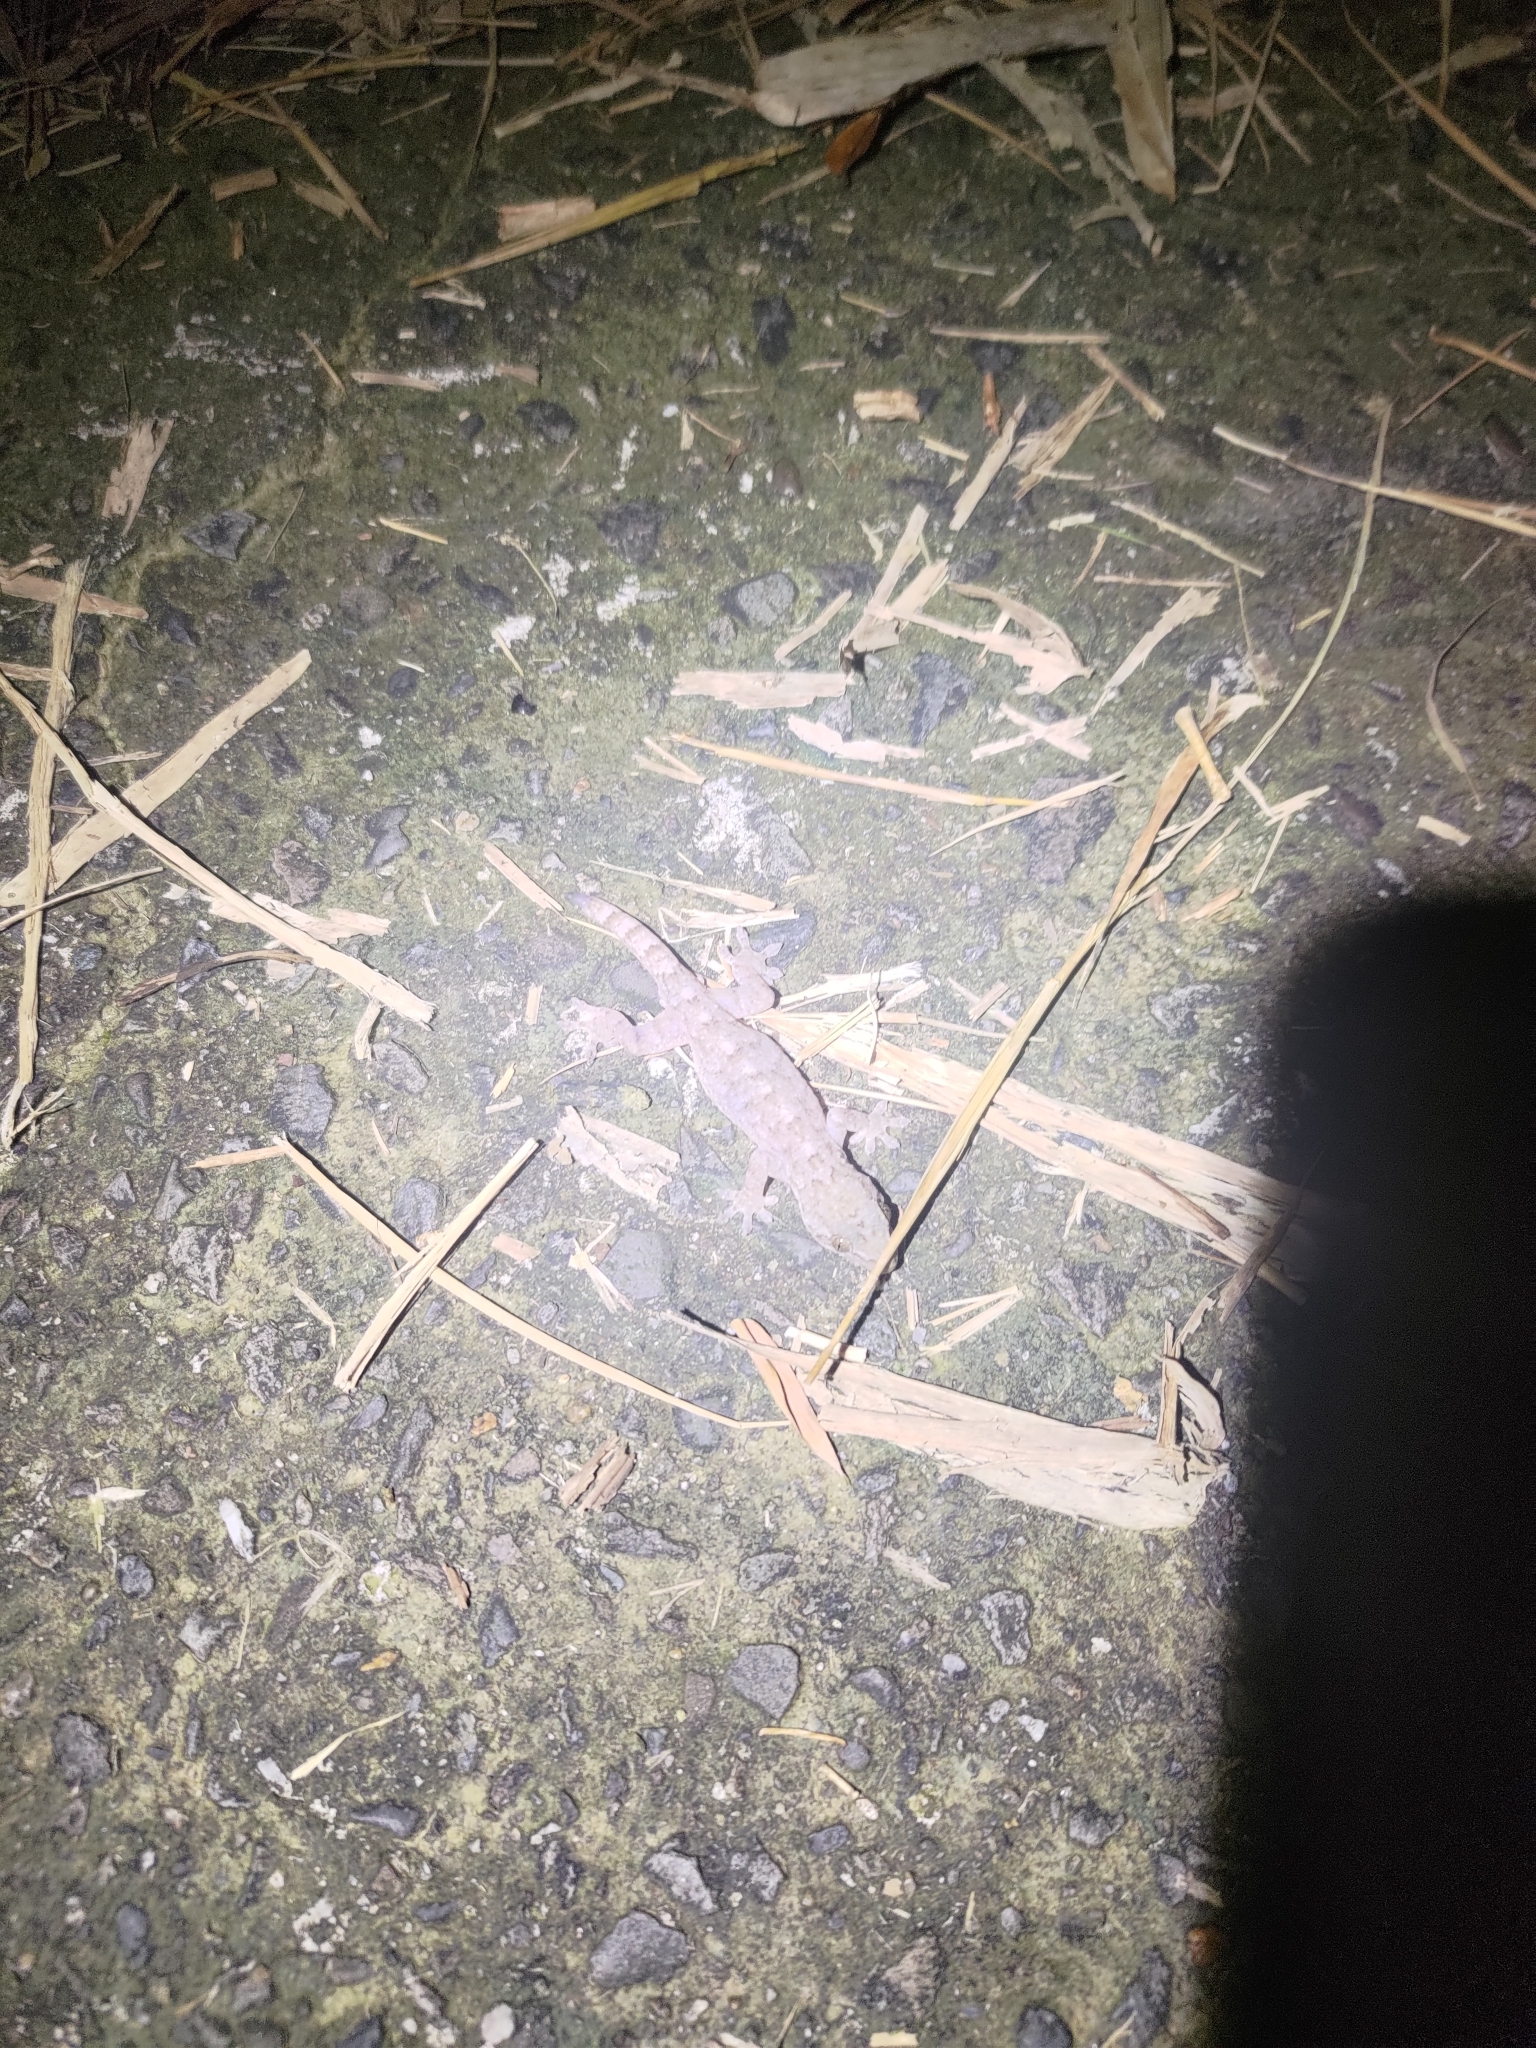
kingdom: Animalia
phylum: Chordata
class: Squamata
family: Gekkonidae
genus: Gekko
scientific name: Gekko hokouensis
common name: Kwangsi gecko
